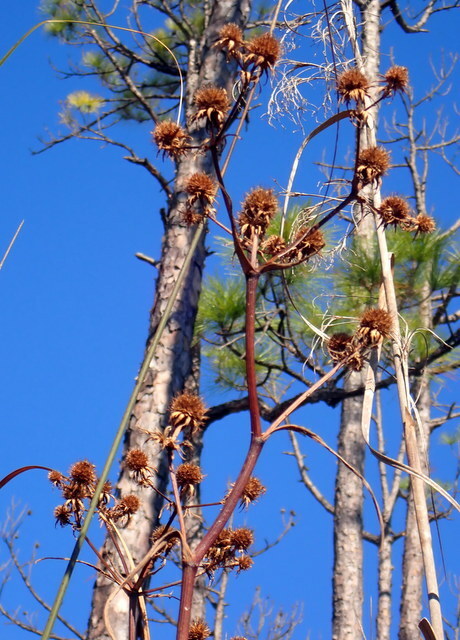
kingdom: Plantae
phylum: Tracheophyta
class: Magnoliopsida
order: Apiales
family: Apiaceae
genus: Eryngium
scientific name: Eryngium yuccifolium
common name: Button eryngo
